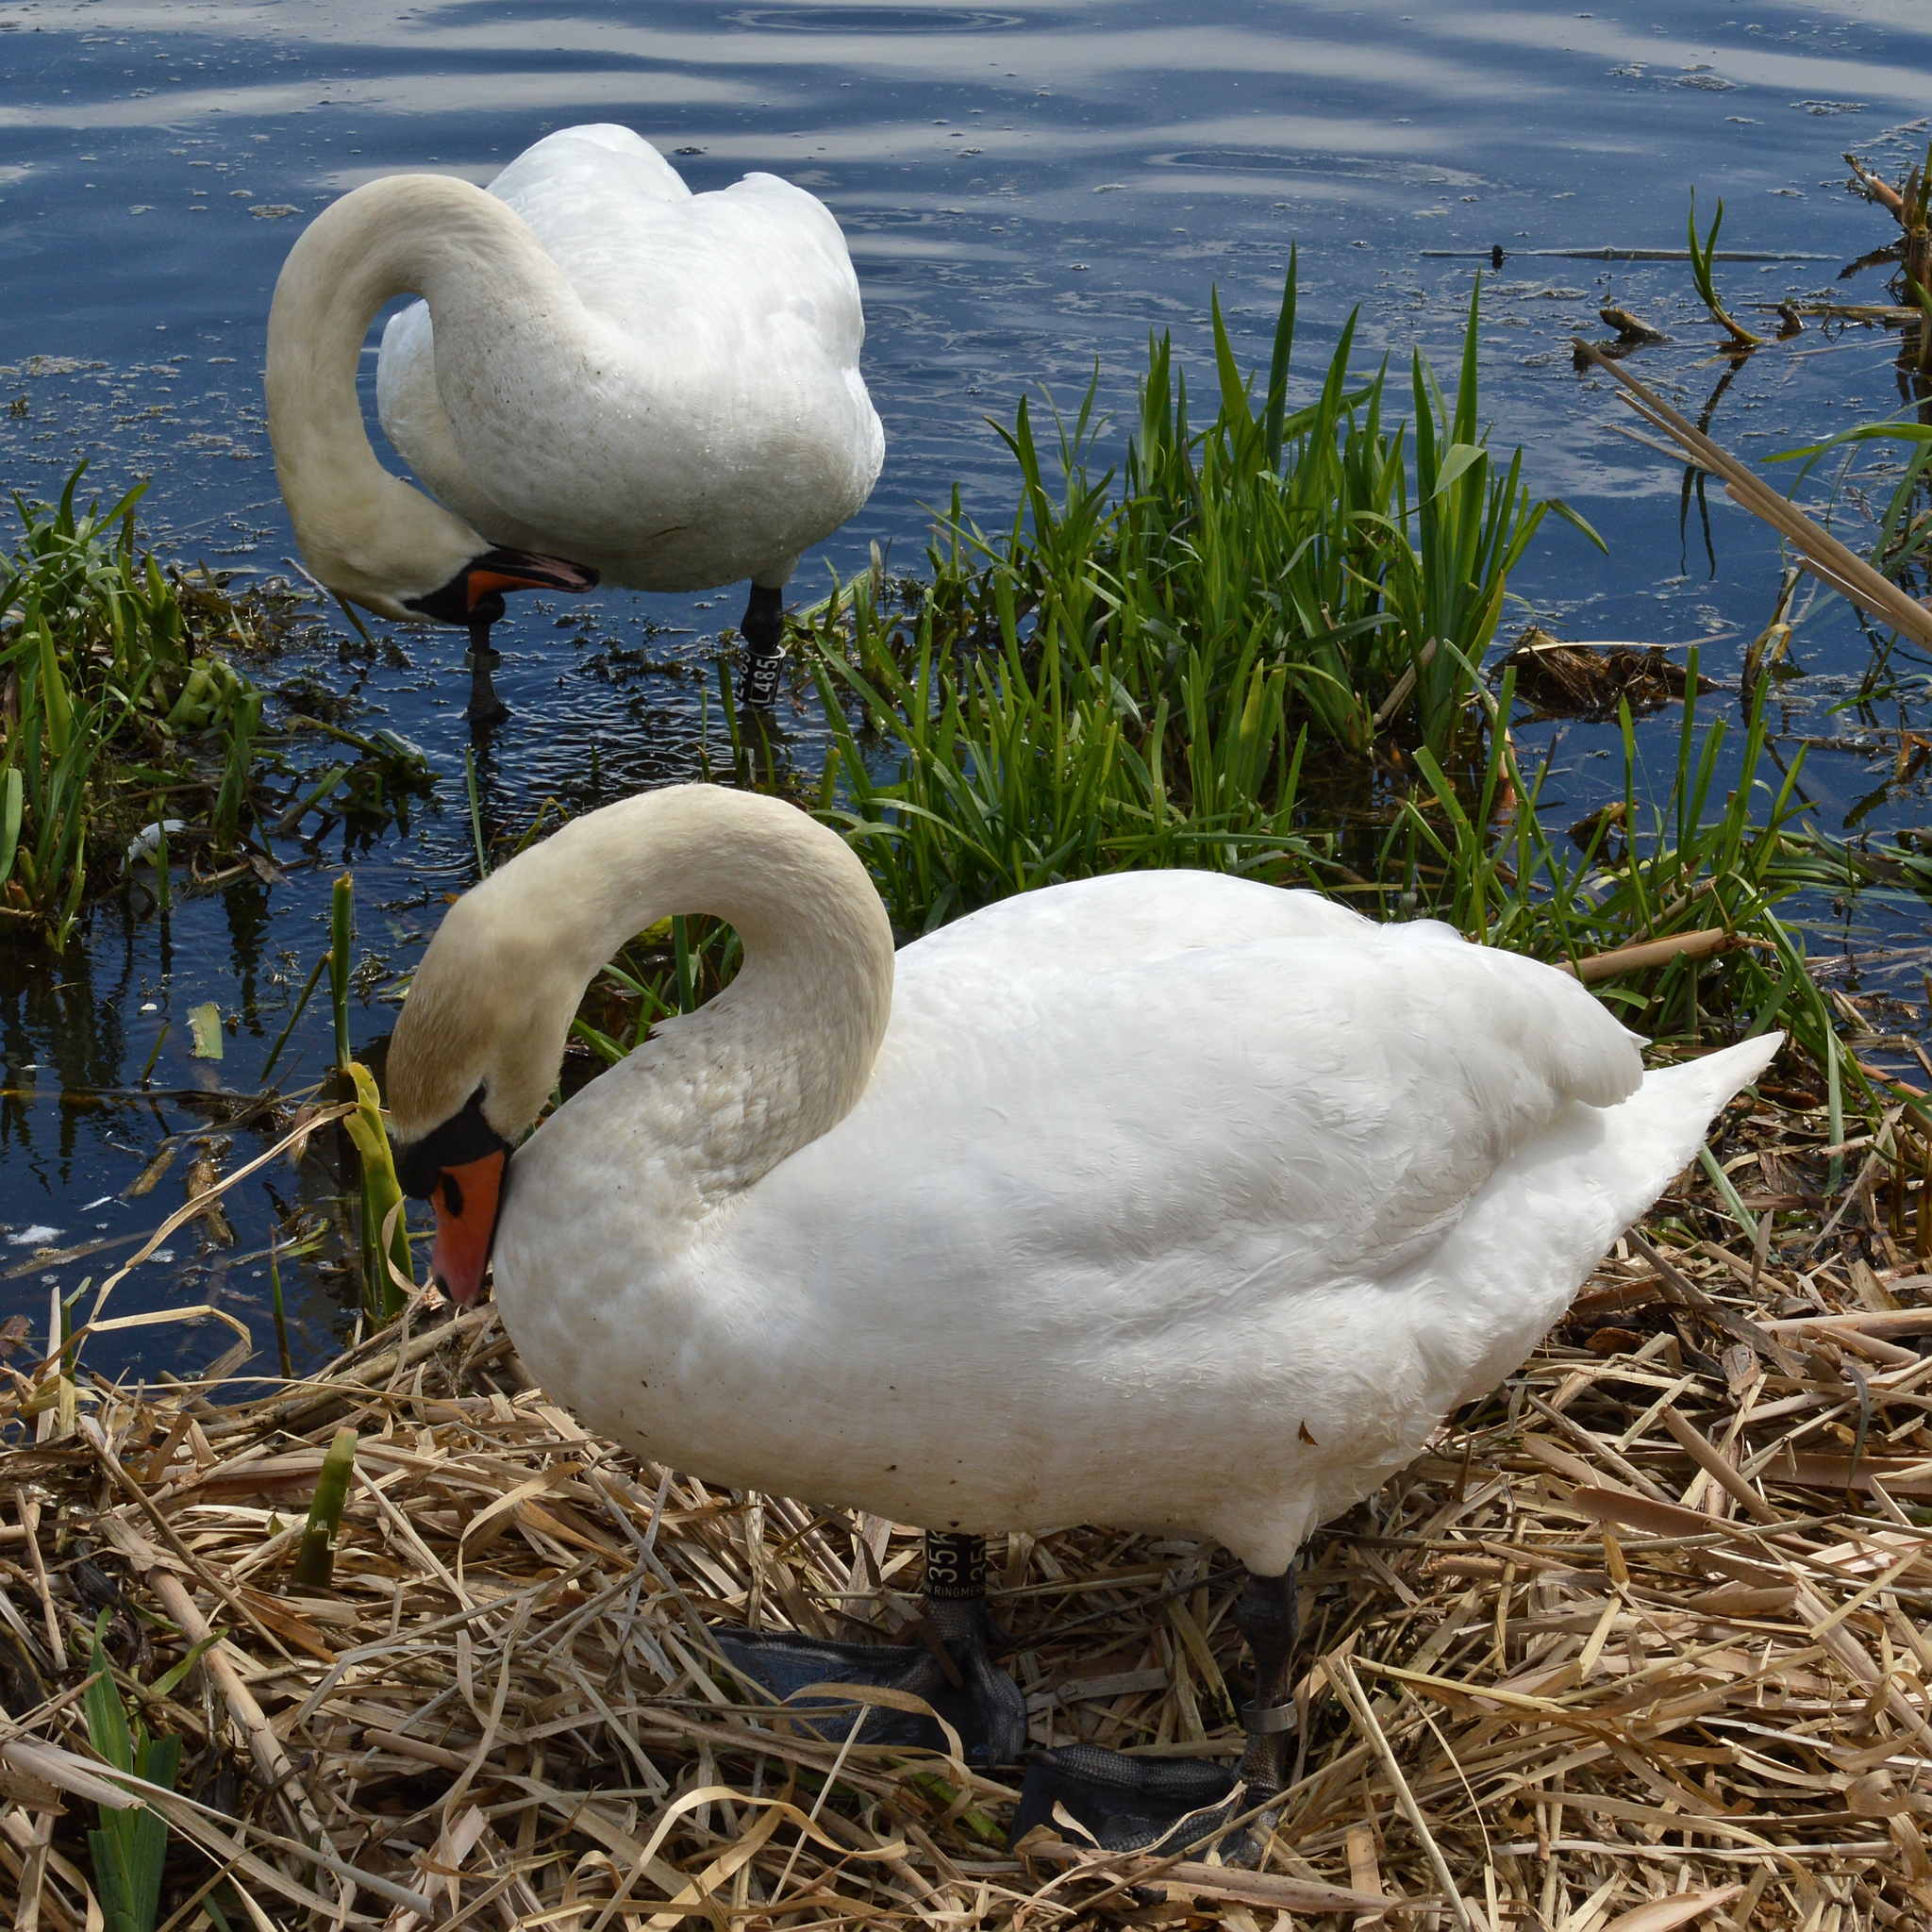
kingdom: Animalia
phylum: Chordata
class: Aves
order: Anseriformes
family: Anatidae
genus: Cygnus
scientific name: Cygnus olor
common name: Mute swan
